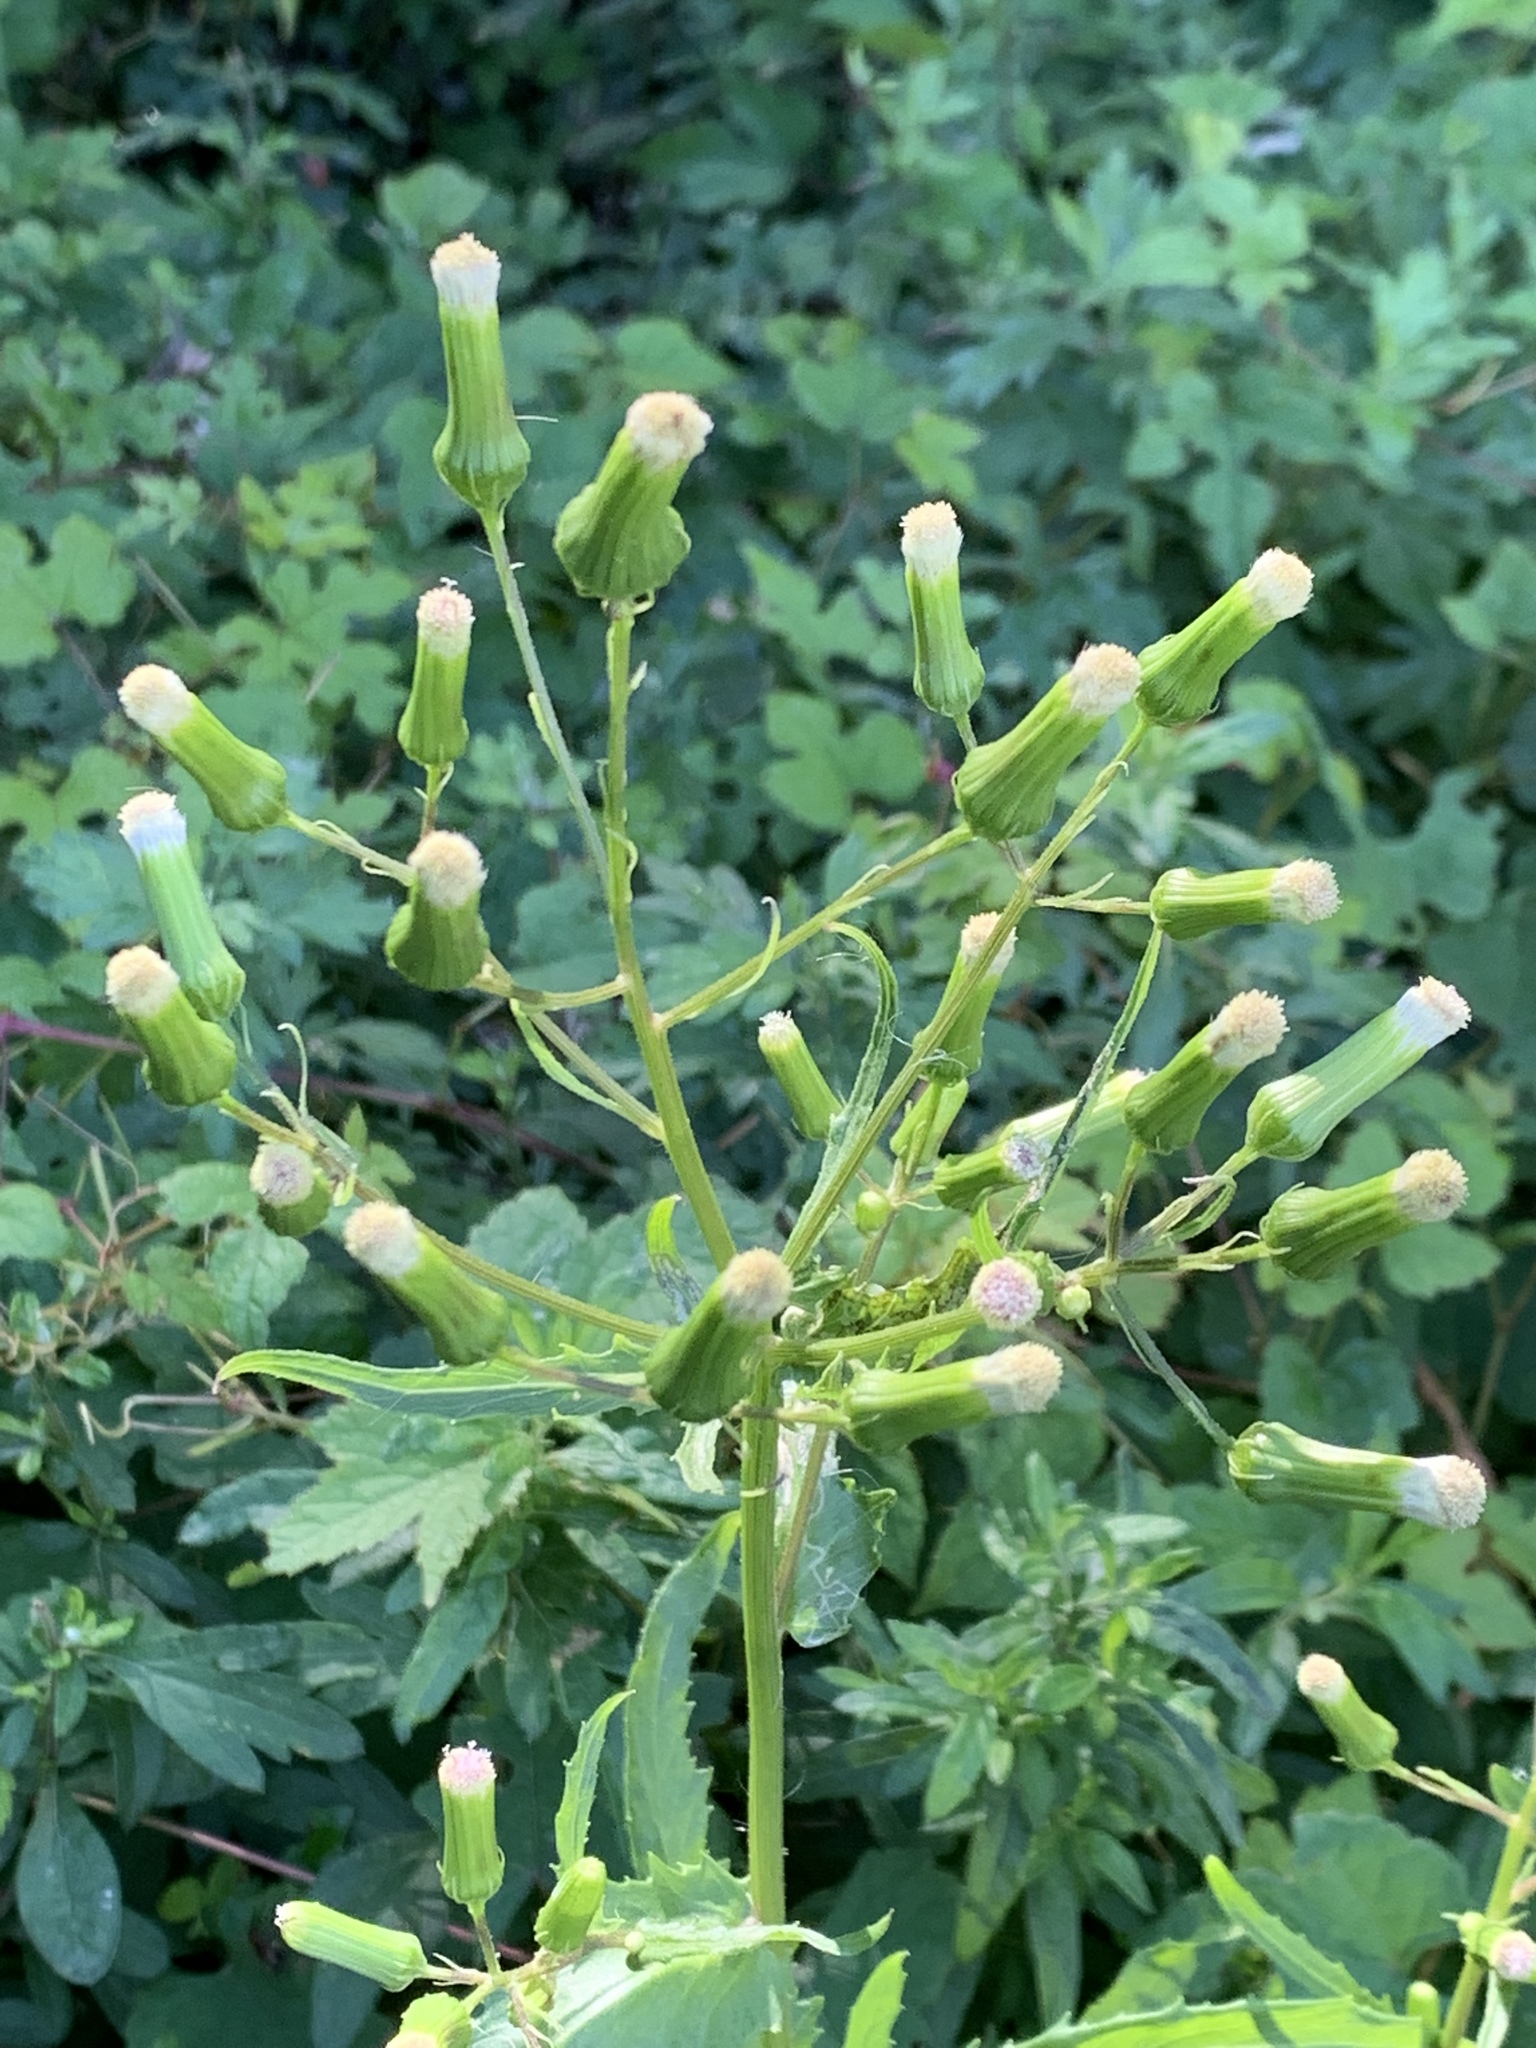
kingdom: Plantae
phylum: Tracheophyta
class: Magnoliopsida
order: Asterales
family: Asteraceae
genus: Erechtites
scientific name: Erechtites hieraciifolius
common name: American burnweed
